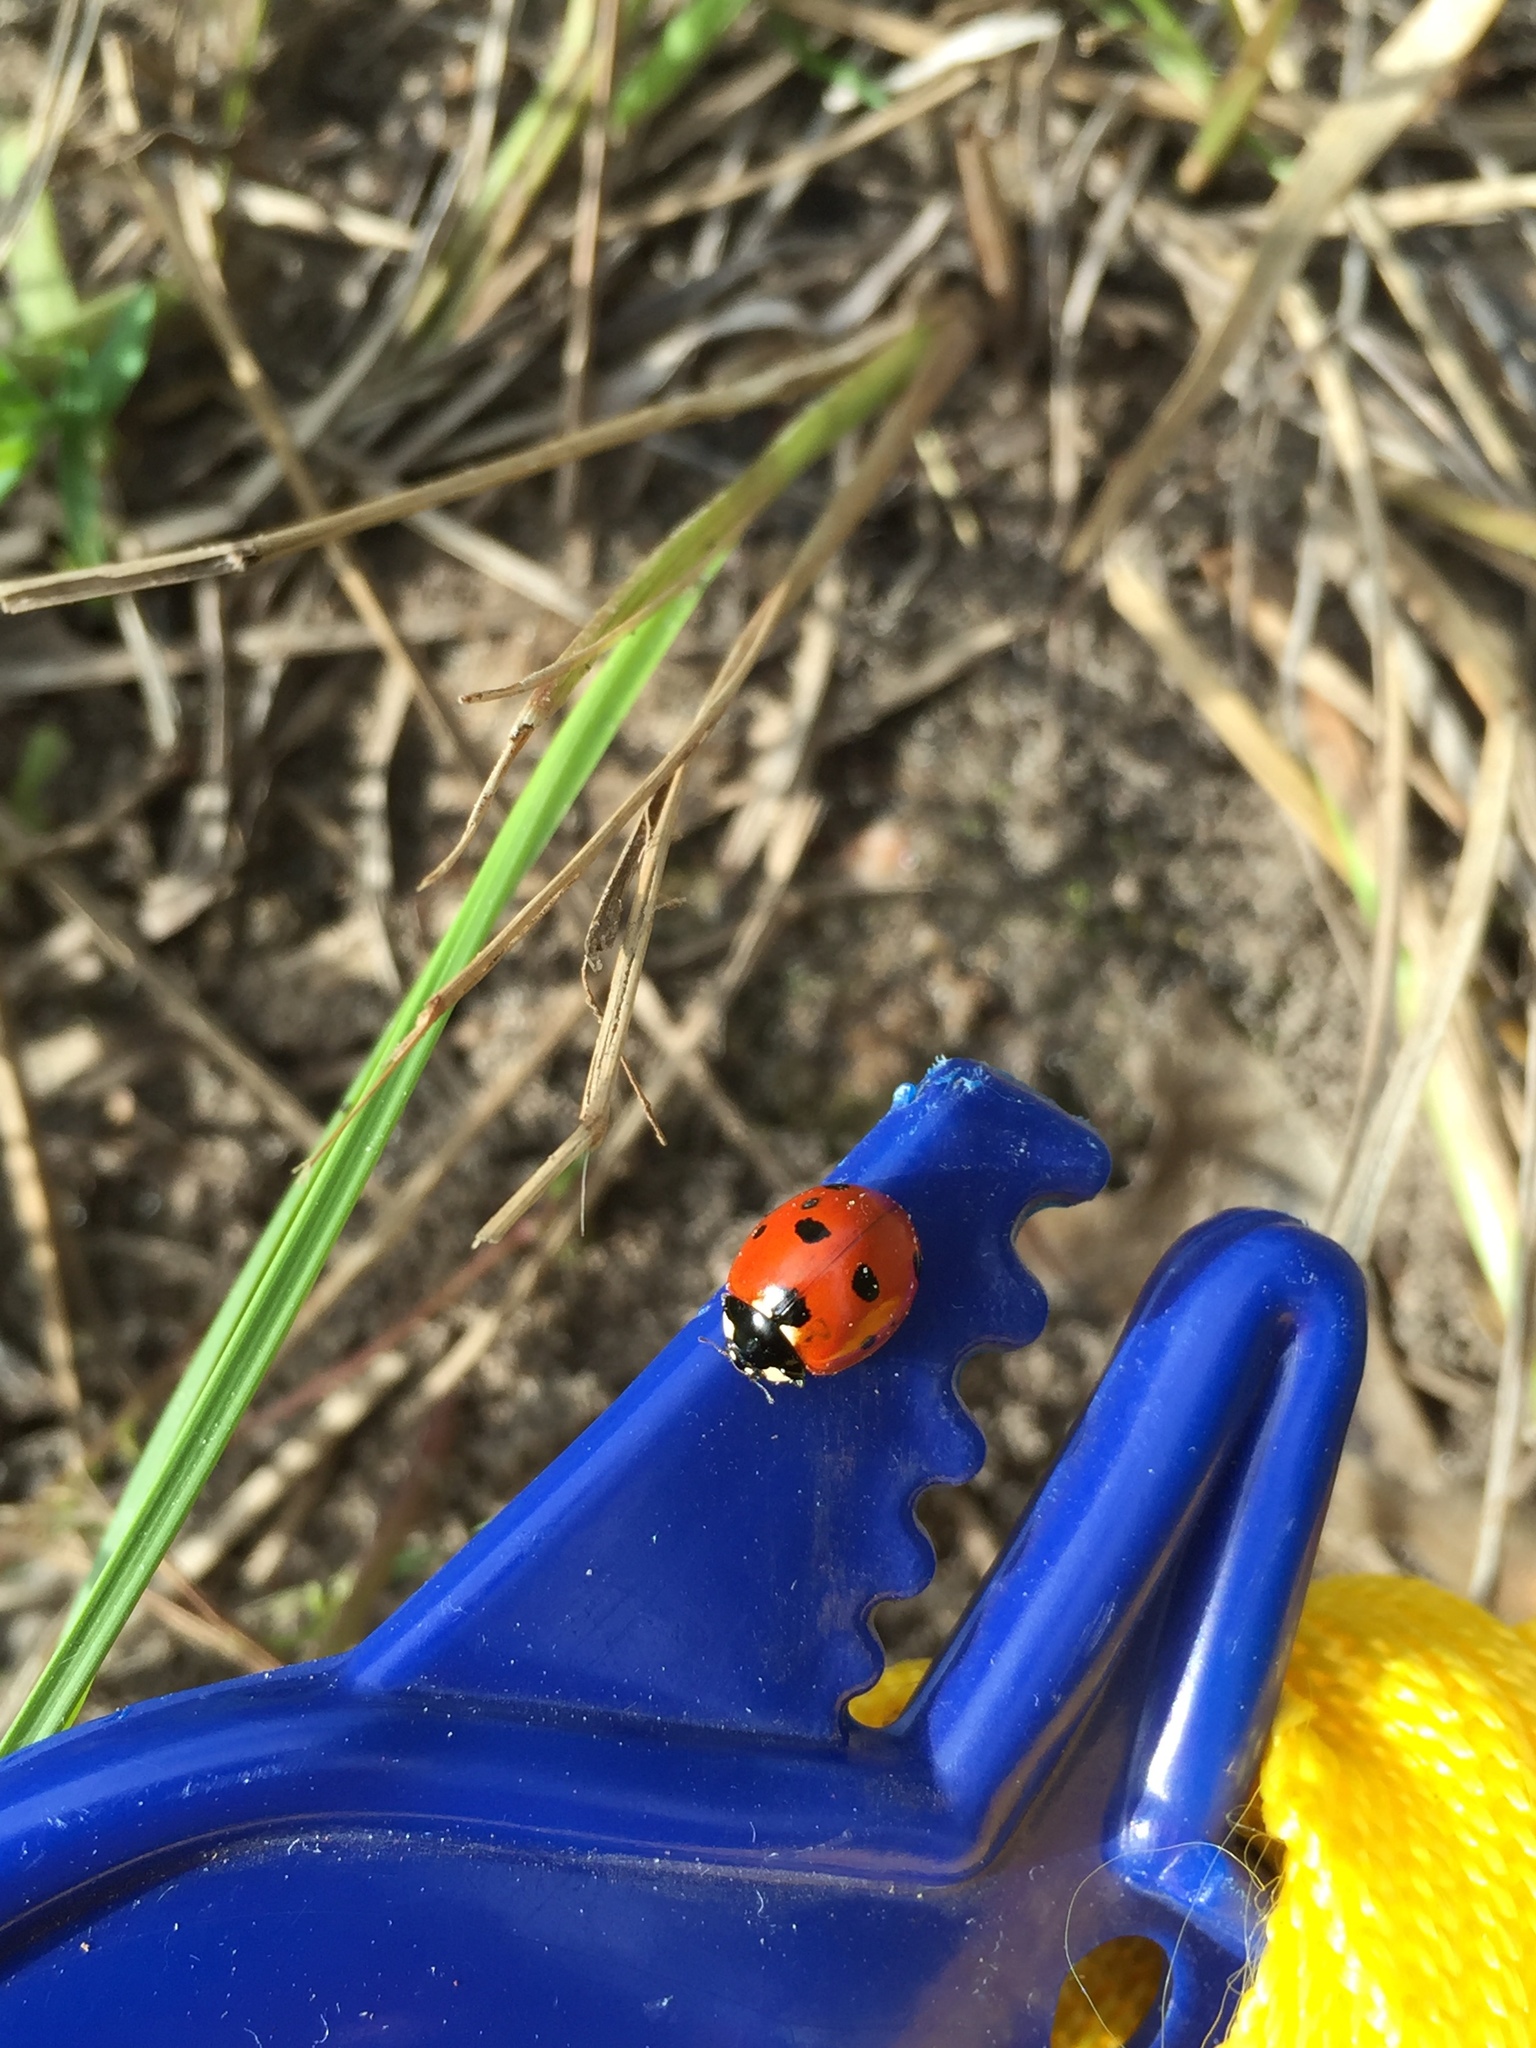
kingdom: Animalia
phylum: Arthropoda
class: Insecta
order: Coleoptera
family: Coccinellidae
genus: Coccinella
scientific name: Coccinella septempunctata
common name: Sevenspotted lady beetle
